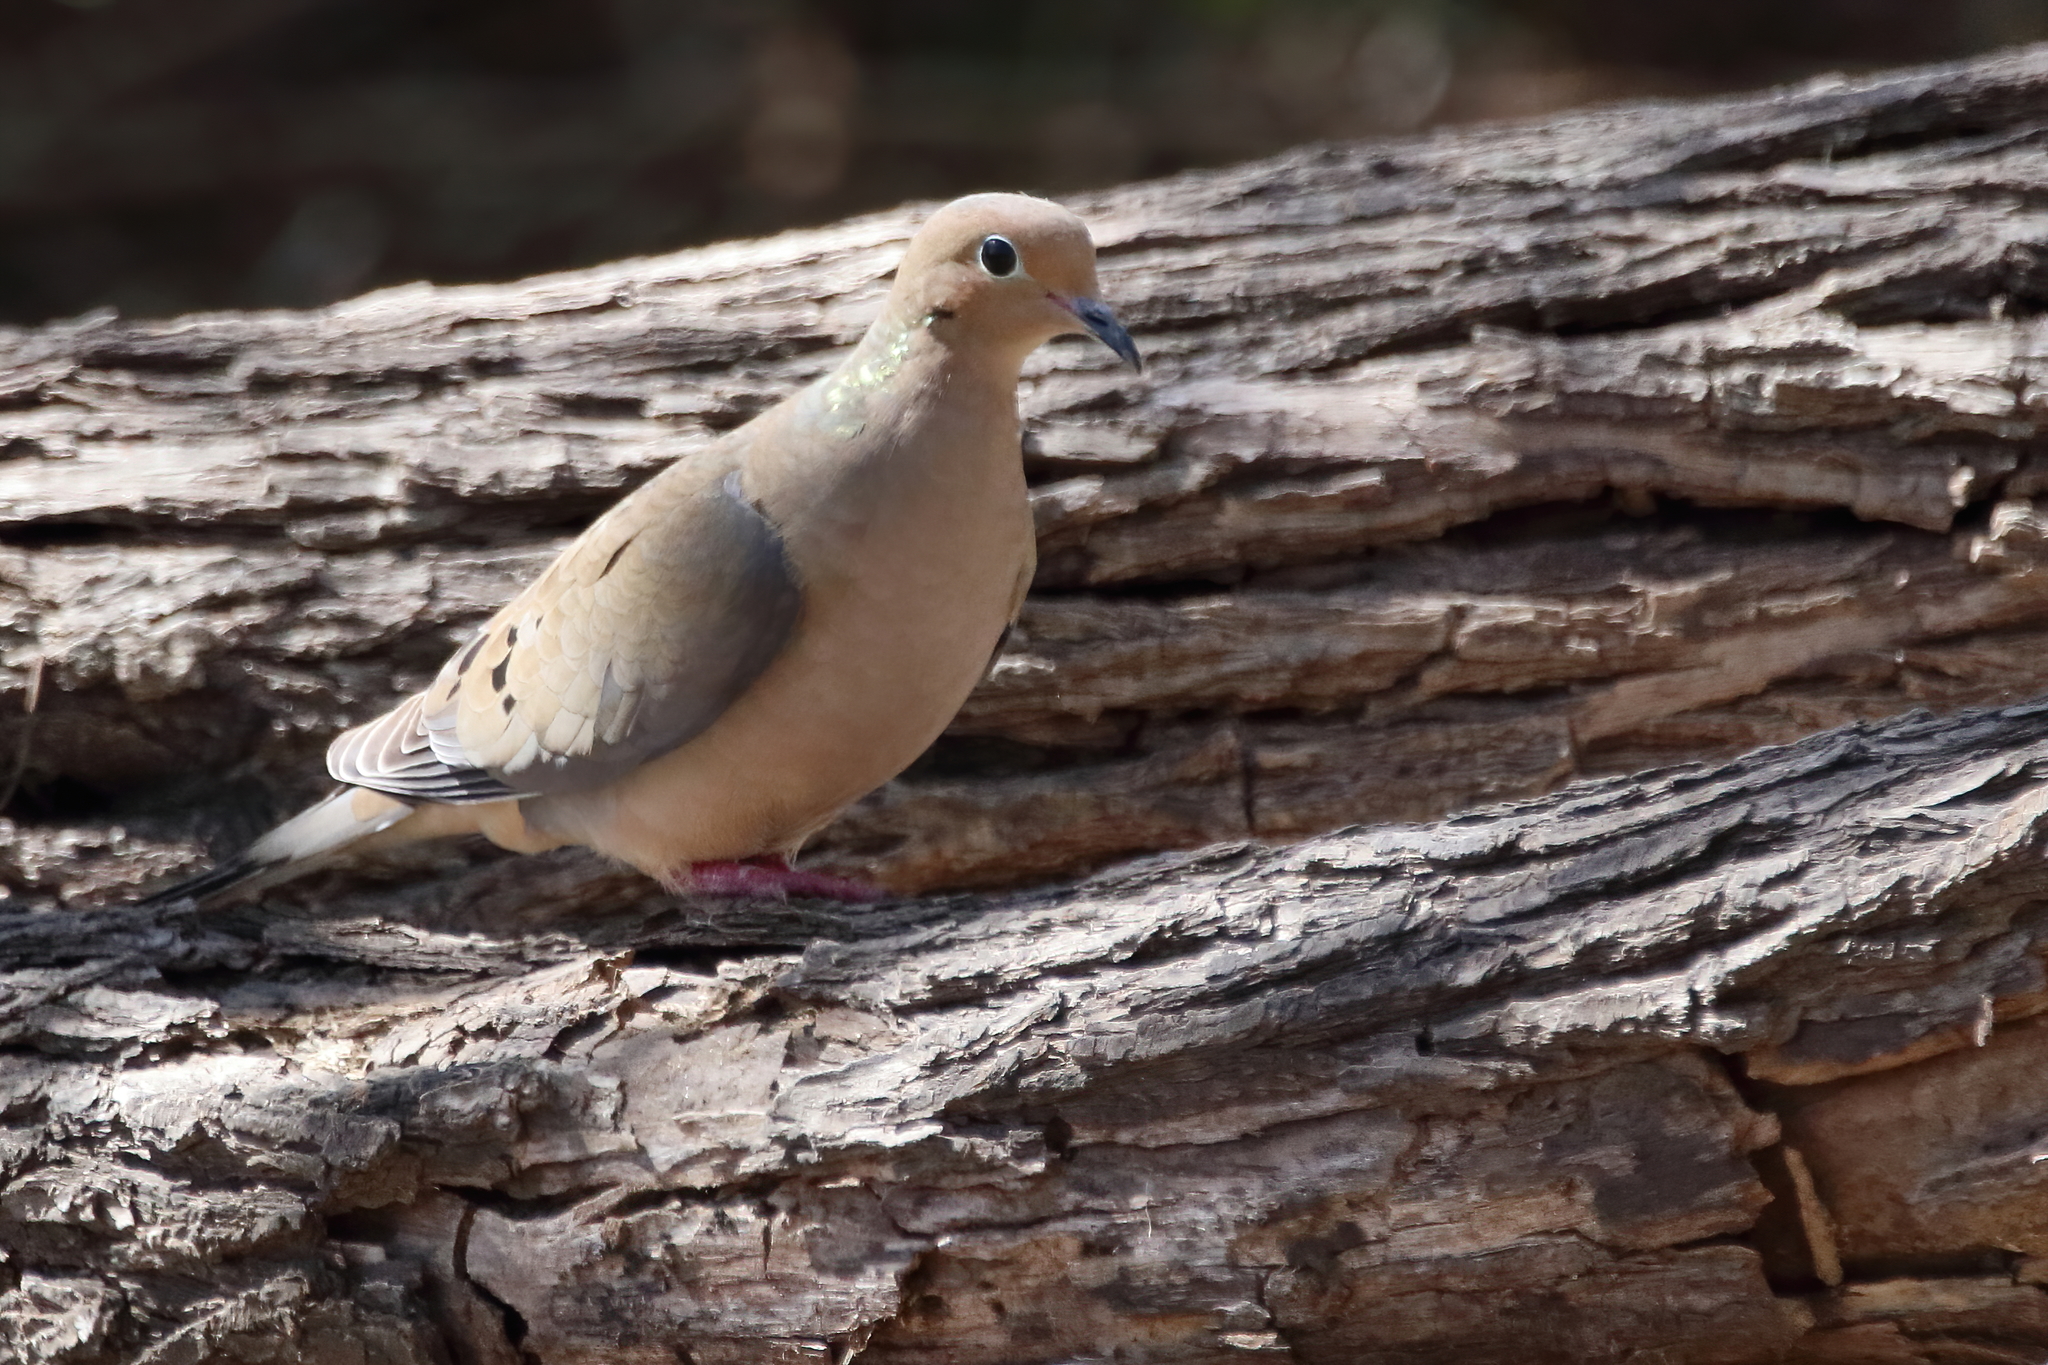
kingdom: Animalia
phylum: Chordata
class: Aves
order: Columbiformes
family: Columbidae
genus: Zenaida
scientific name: Zenaida macroura
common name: Mourning dove
